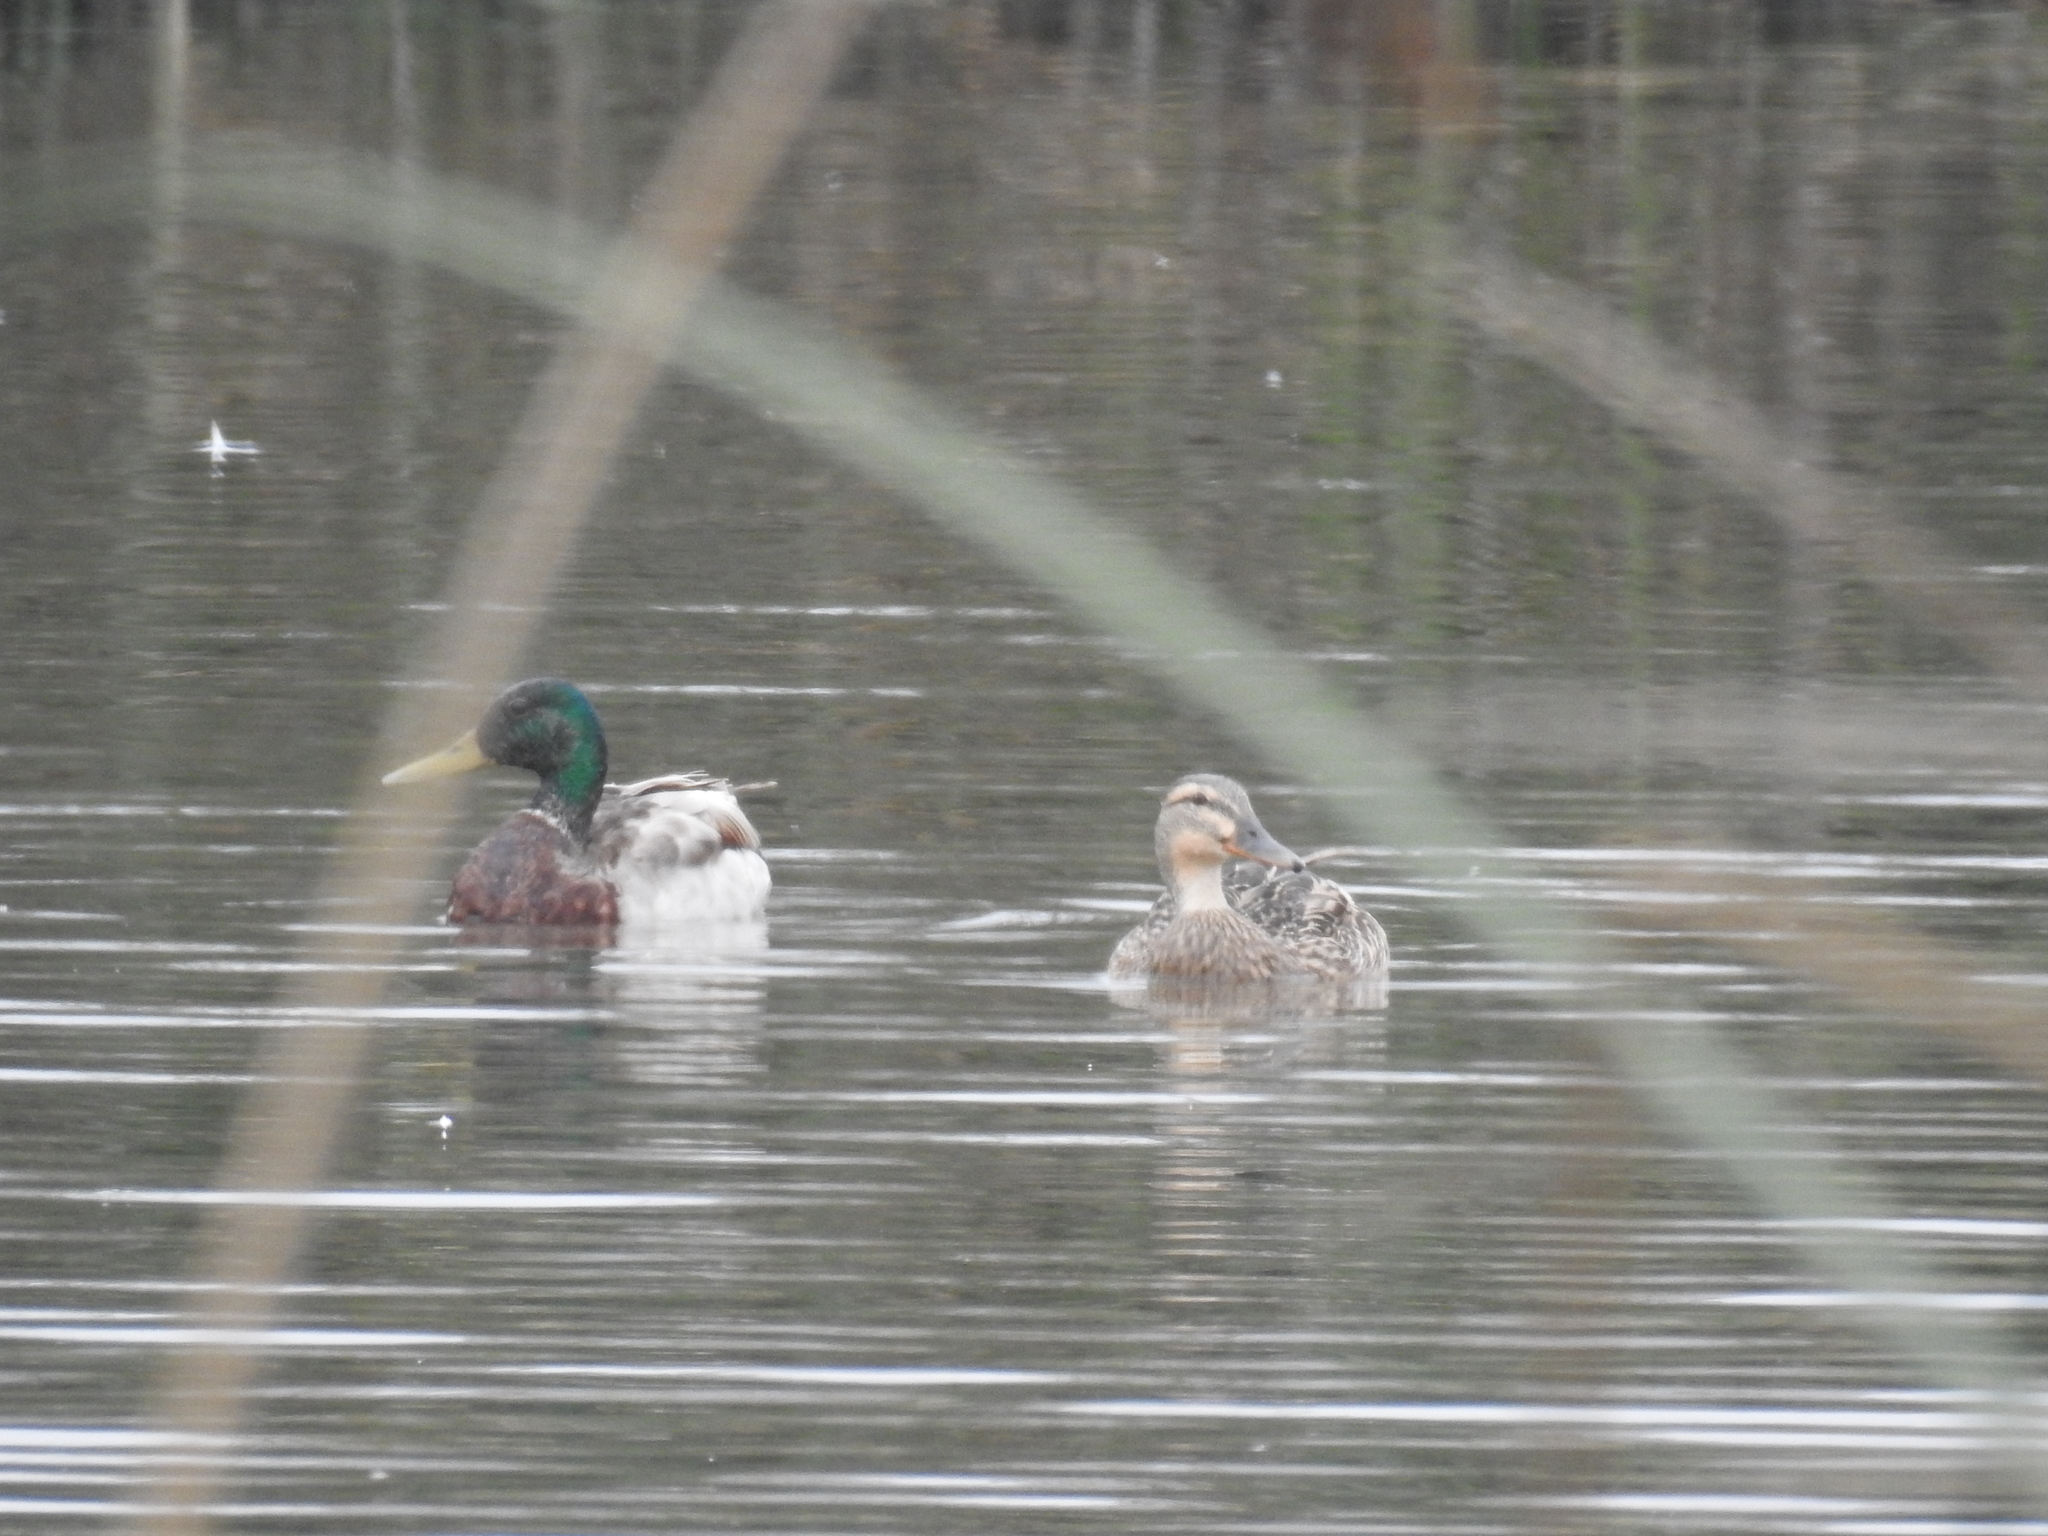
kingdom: Animalia
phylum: Chordata
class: Aves
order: Anseriformes
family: Anatidae
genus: Anas
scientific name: Anas platyrhynchos
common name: Mallard
